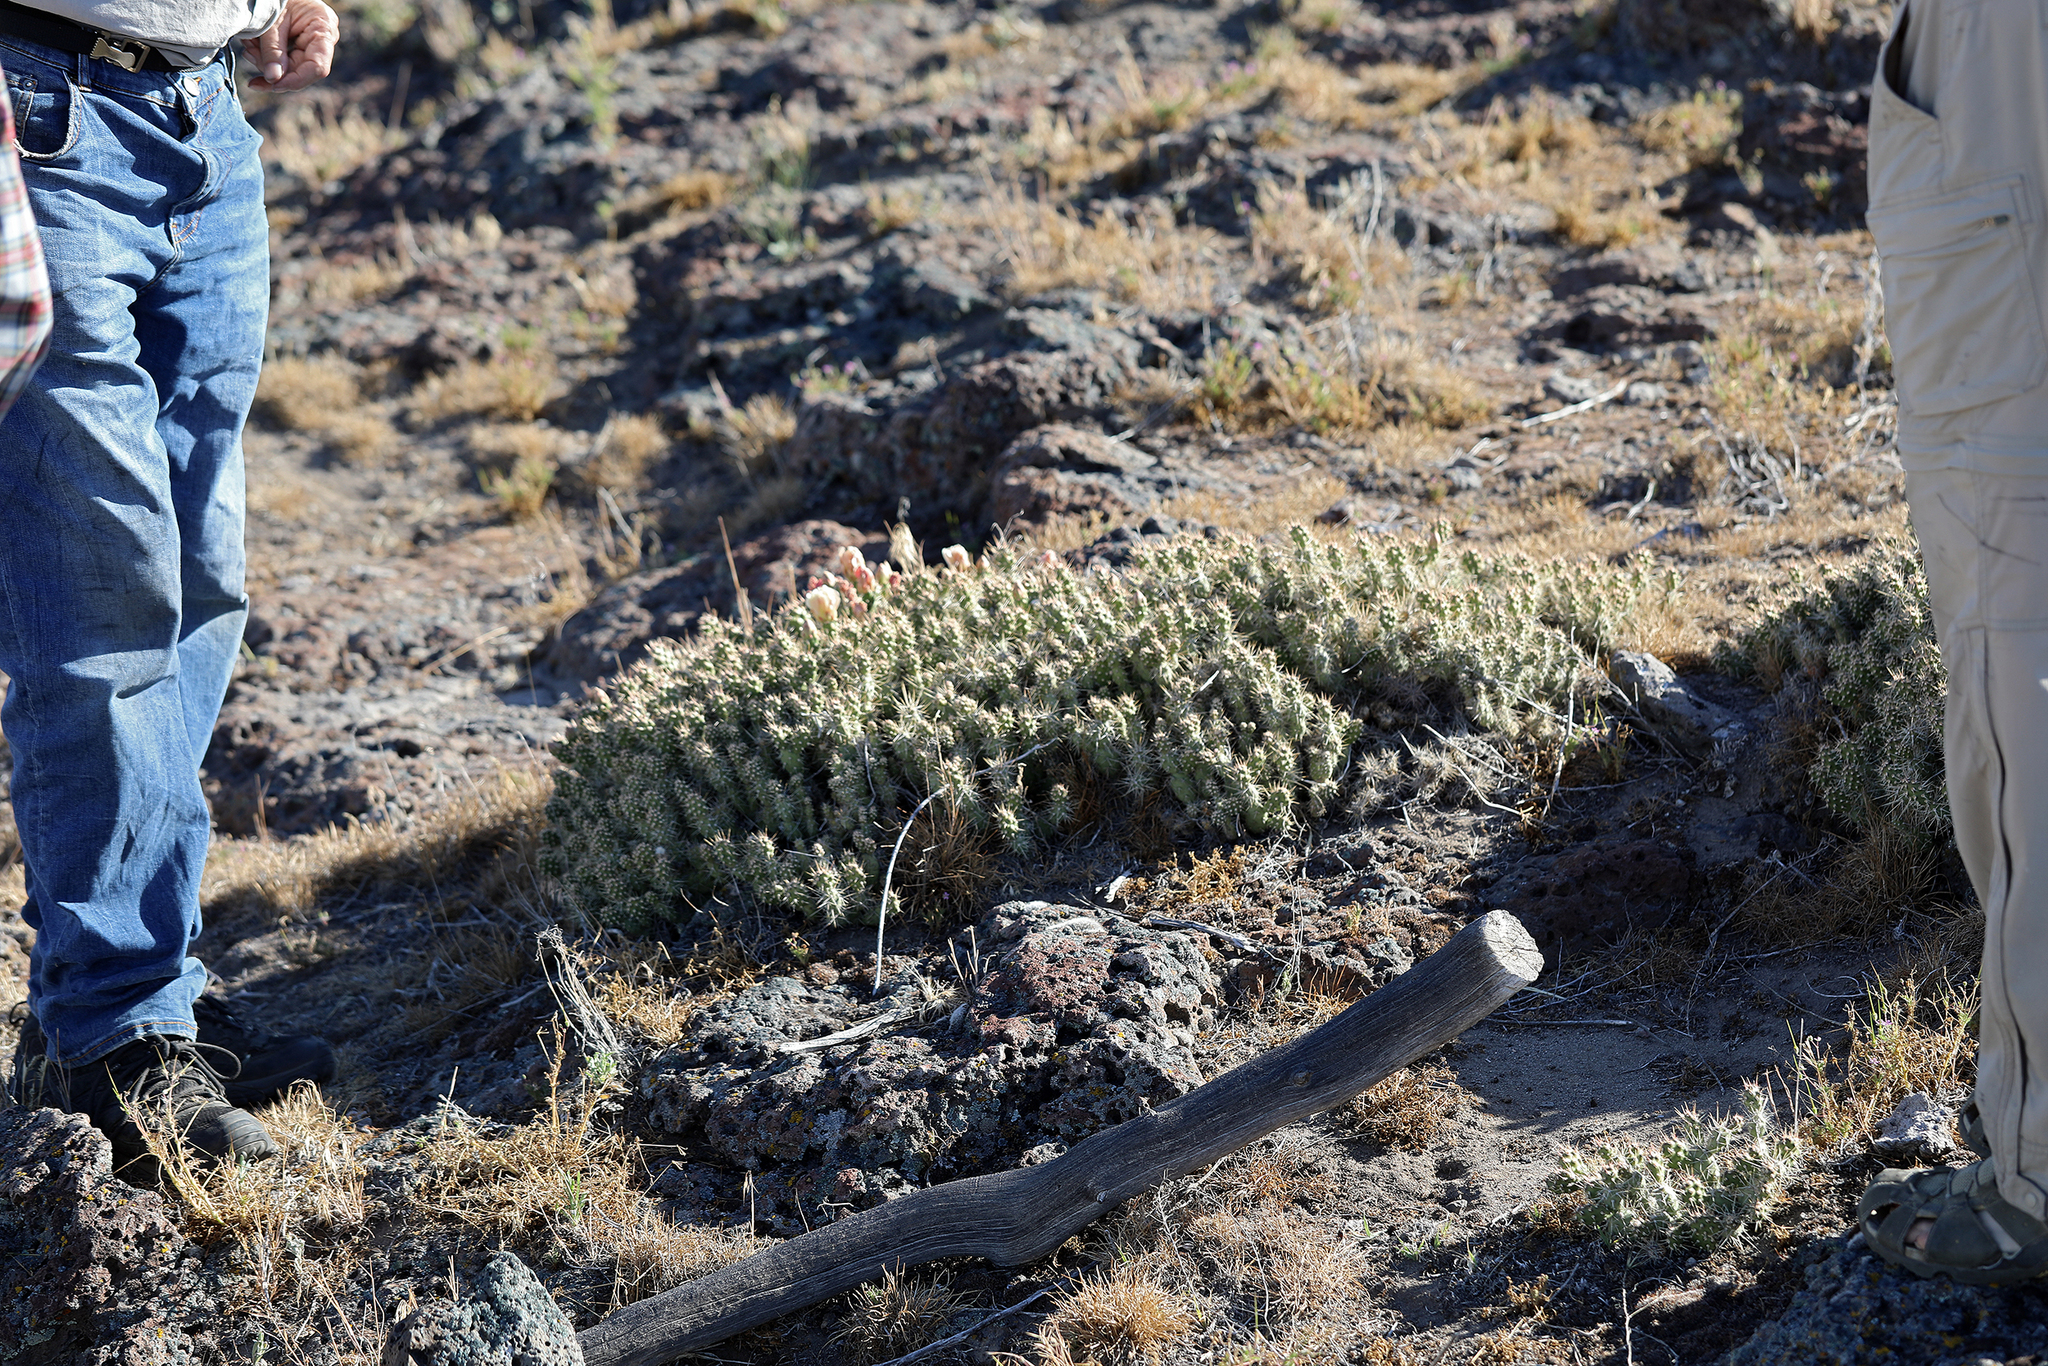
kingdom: Plantae
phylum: Tracheophyta
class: Magnoliopsida
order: Caryophyllales
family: Cactaceae
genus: Opuntia
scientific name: Opuntia fragilis
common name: Brittle cactus
